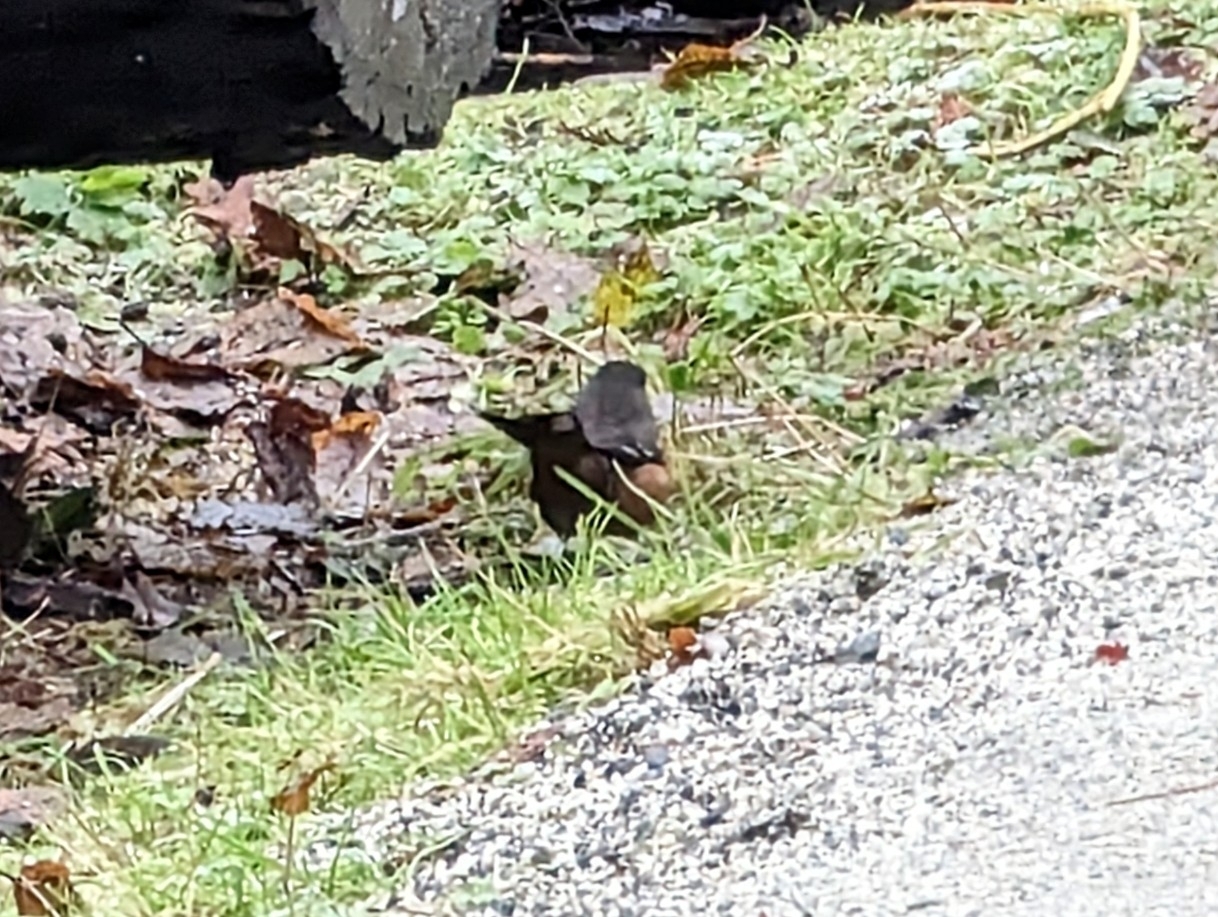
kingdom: Animalia
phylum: Chordata
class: Aves
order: Passeriformes
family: Passerellidae
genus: Pipilo
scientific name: Pipilo maculatus
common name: Spotted towhee
